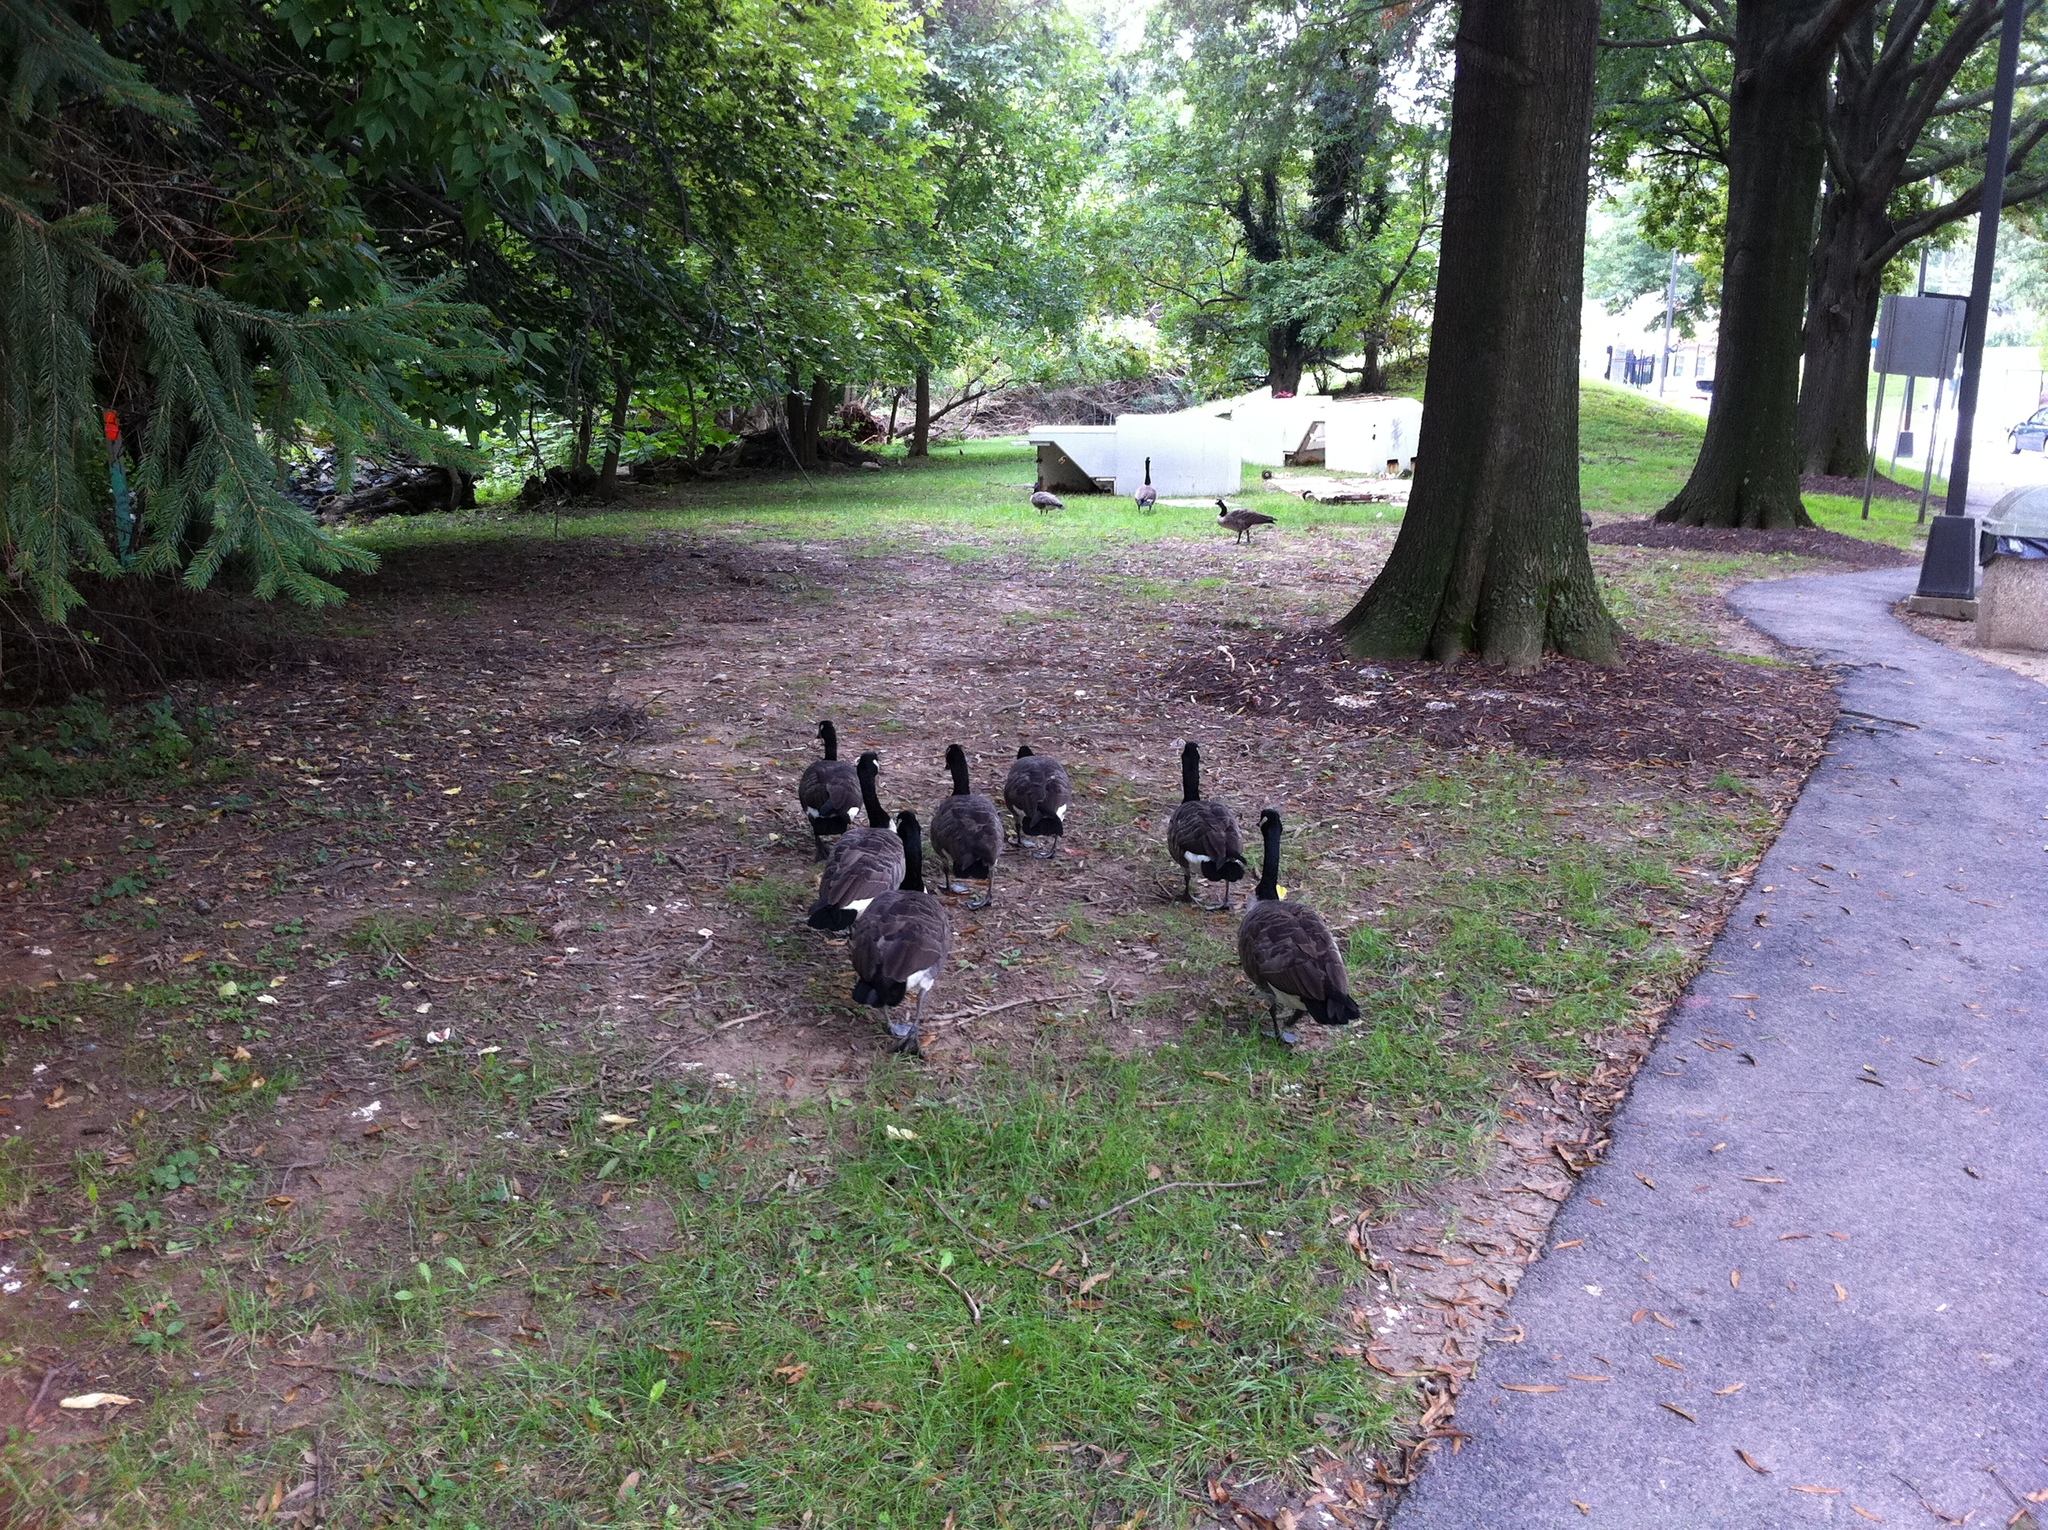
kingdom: Animalia
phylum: Chordata
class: Aves
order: Anseriformes
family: Anatidae
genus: Branta
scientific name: Branta canadensis
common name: Canada goose
